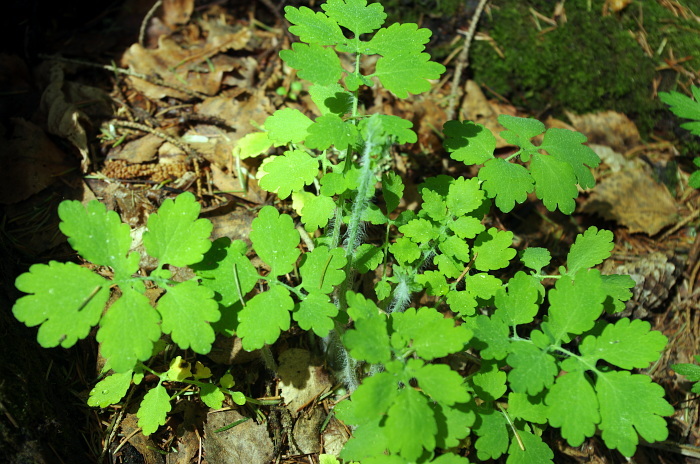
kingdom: Plantae
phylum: Tracheophyta
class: Magnoliopsida
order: Ranunculales
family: Papaveraceae
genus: Chelidonium
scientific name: Chelidonium majus
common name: Greater celandine
